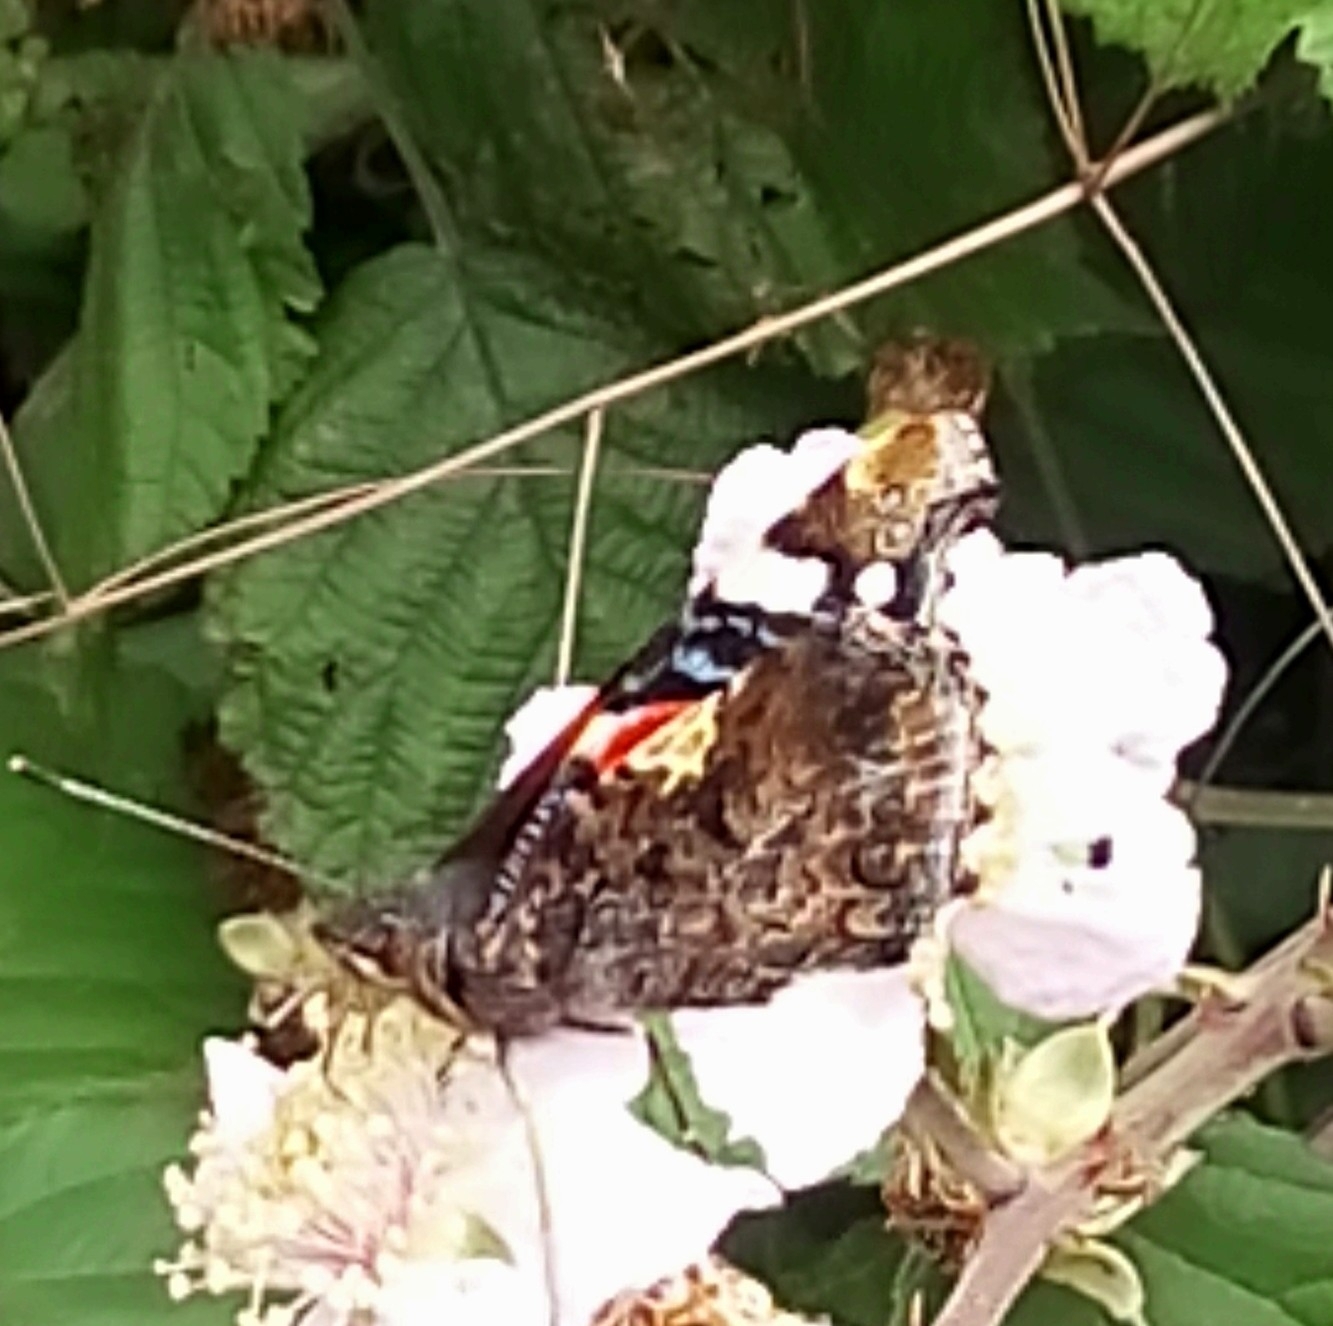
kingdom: Animalia
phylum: Arthropoda
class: Insecta
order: Lepidoptera
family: Nymphalidae
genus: Vanessa
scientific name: Vanessa atalanta
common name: Red admiral
